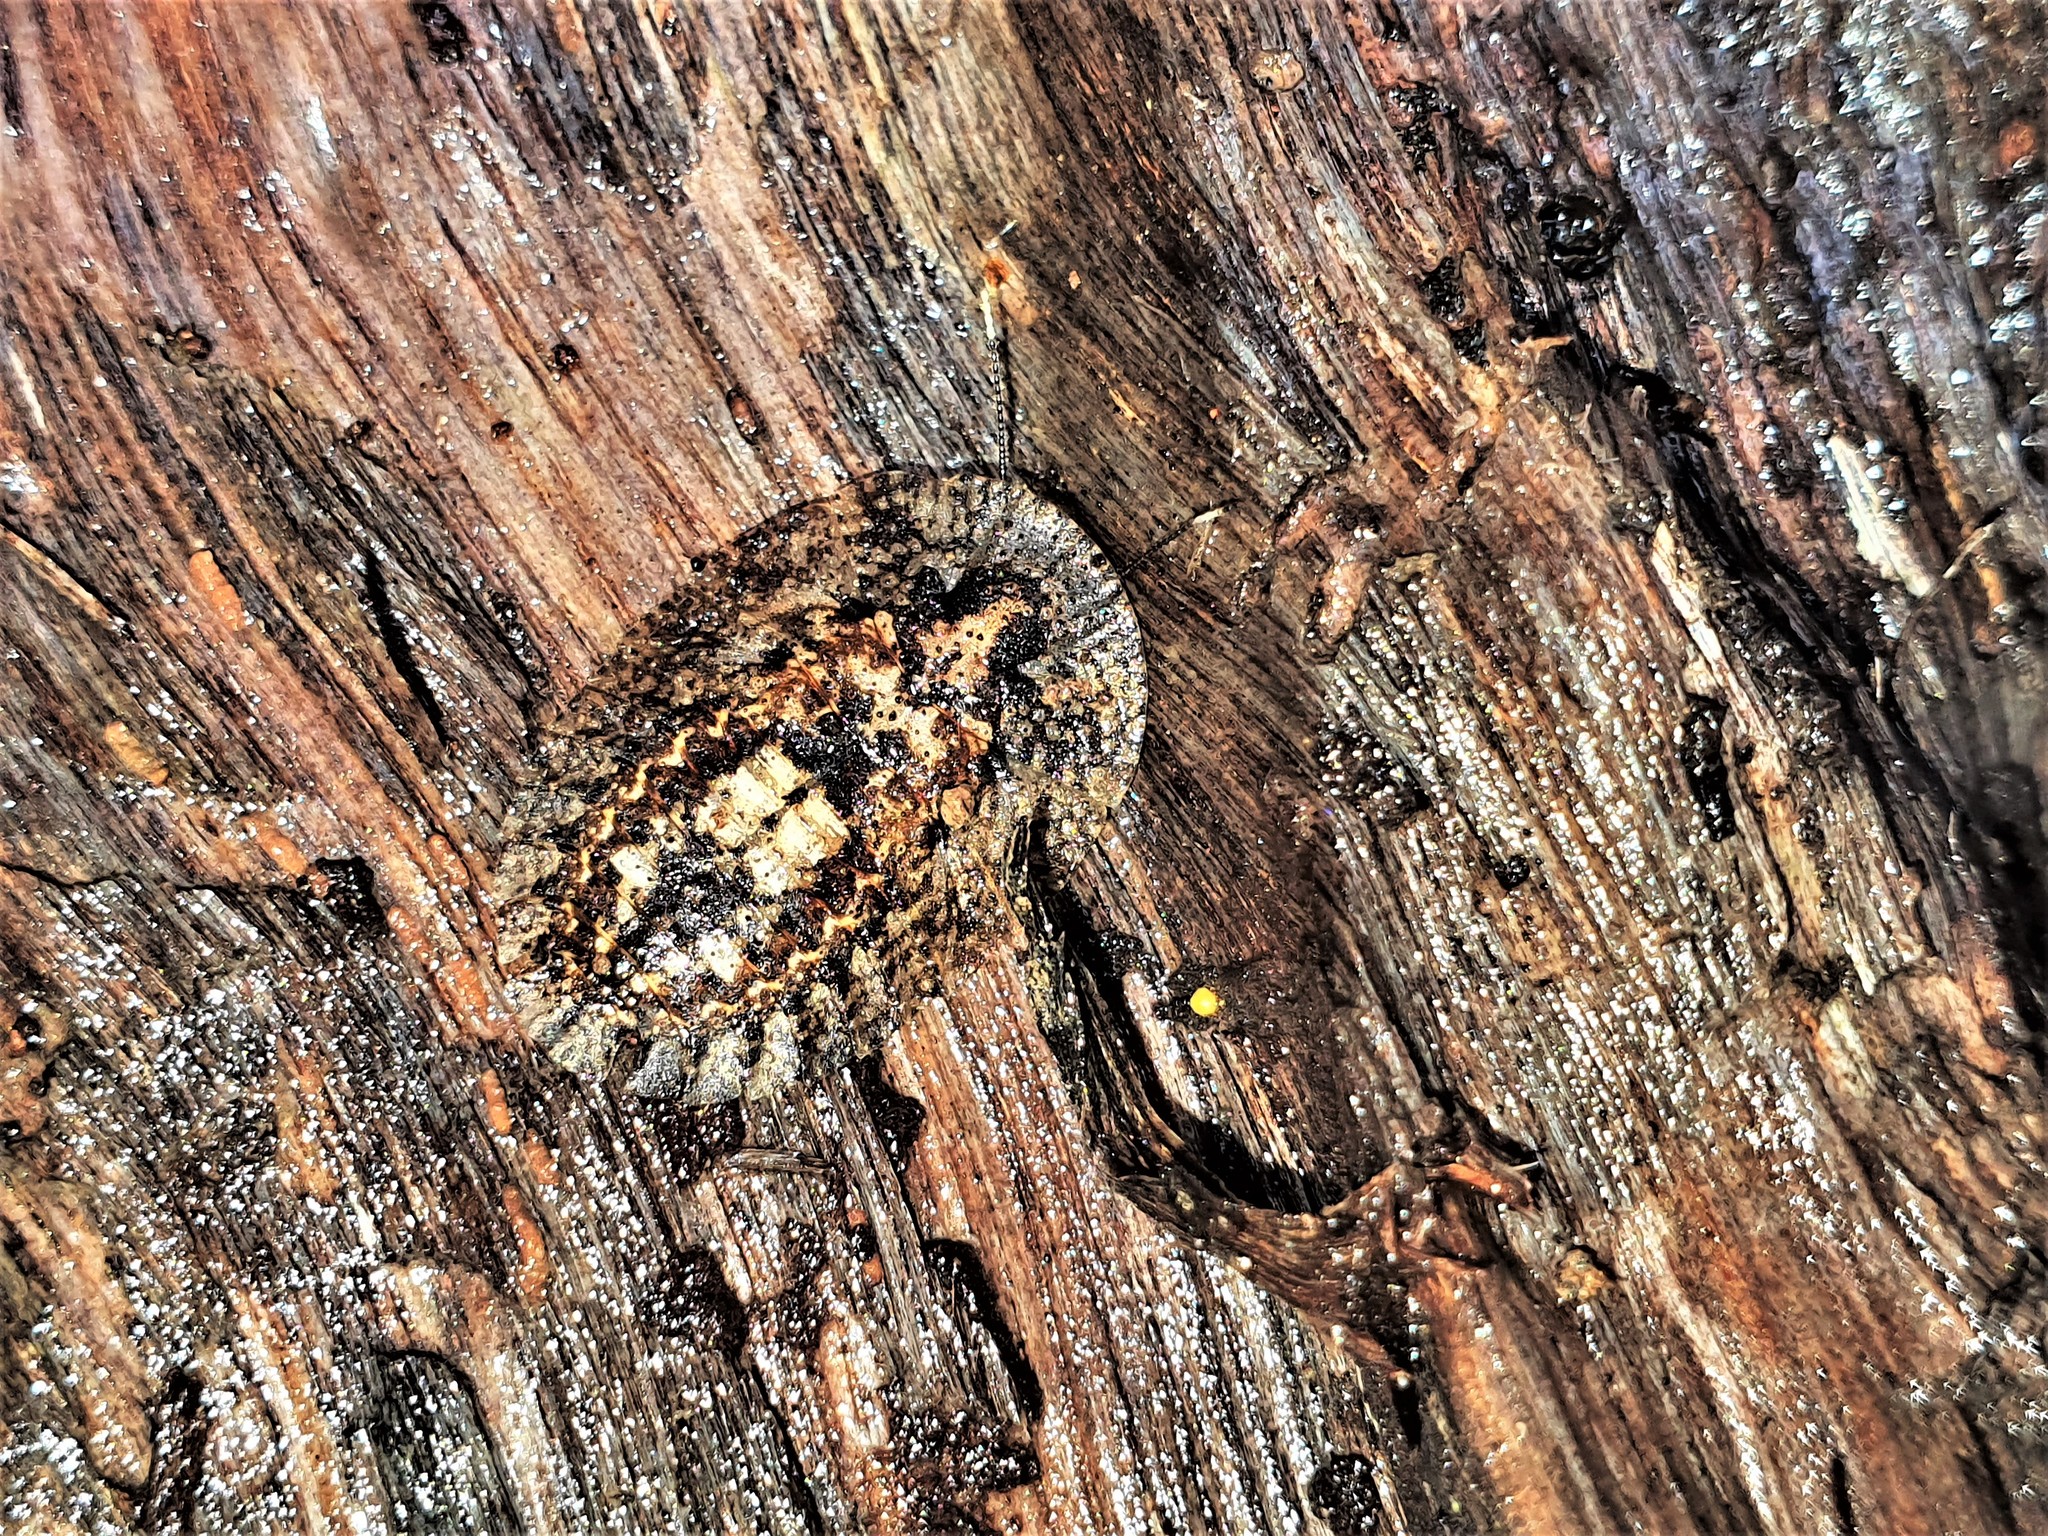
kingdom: Animalia
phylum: Arthropoda
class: Insecta
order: Blattodea
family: Blaberidae
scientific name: Blaberidae
